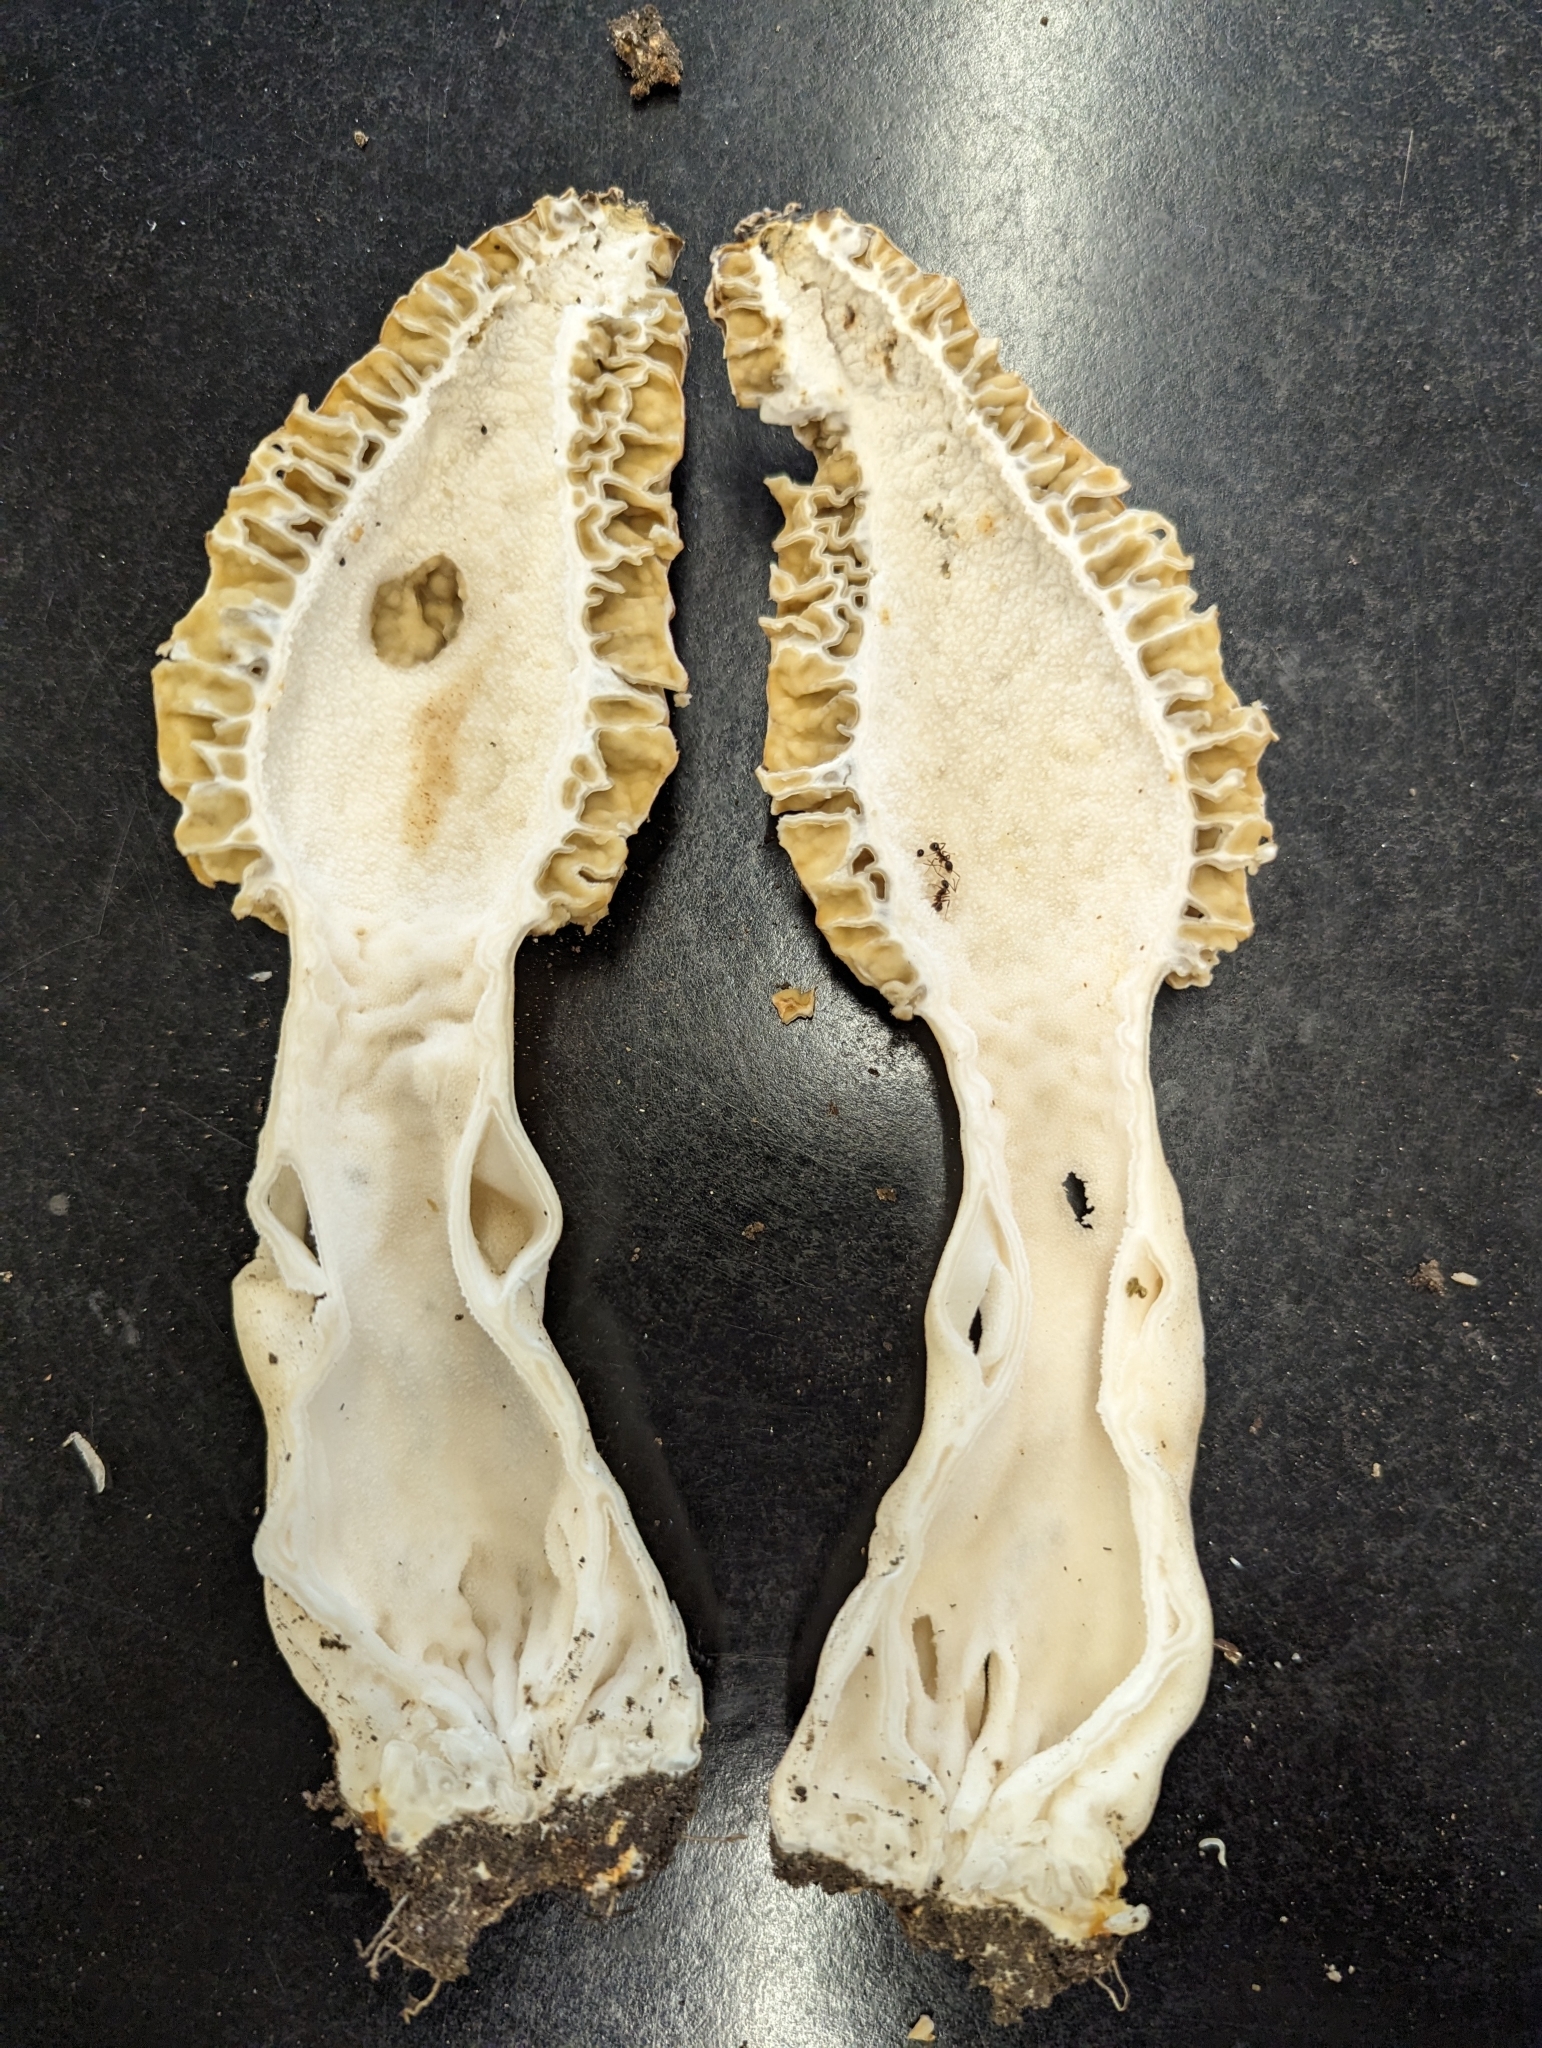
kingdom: Animalia
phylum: Arthropoda
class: Insecta
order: Hymenoptera
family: Formicidae
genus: Aphaenogaster
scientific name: Aphaenogaster picea
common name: Pitch-black collared ant
